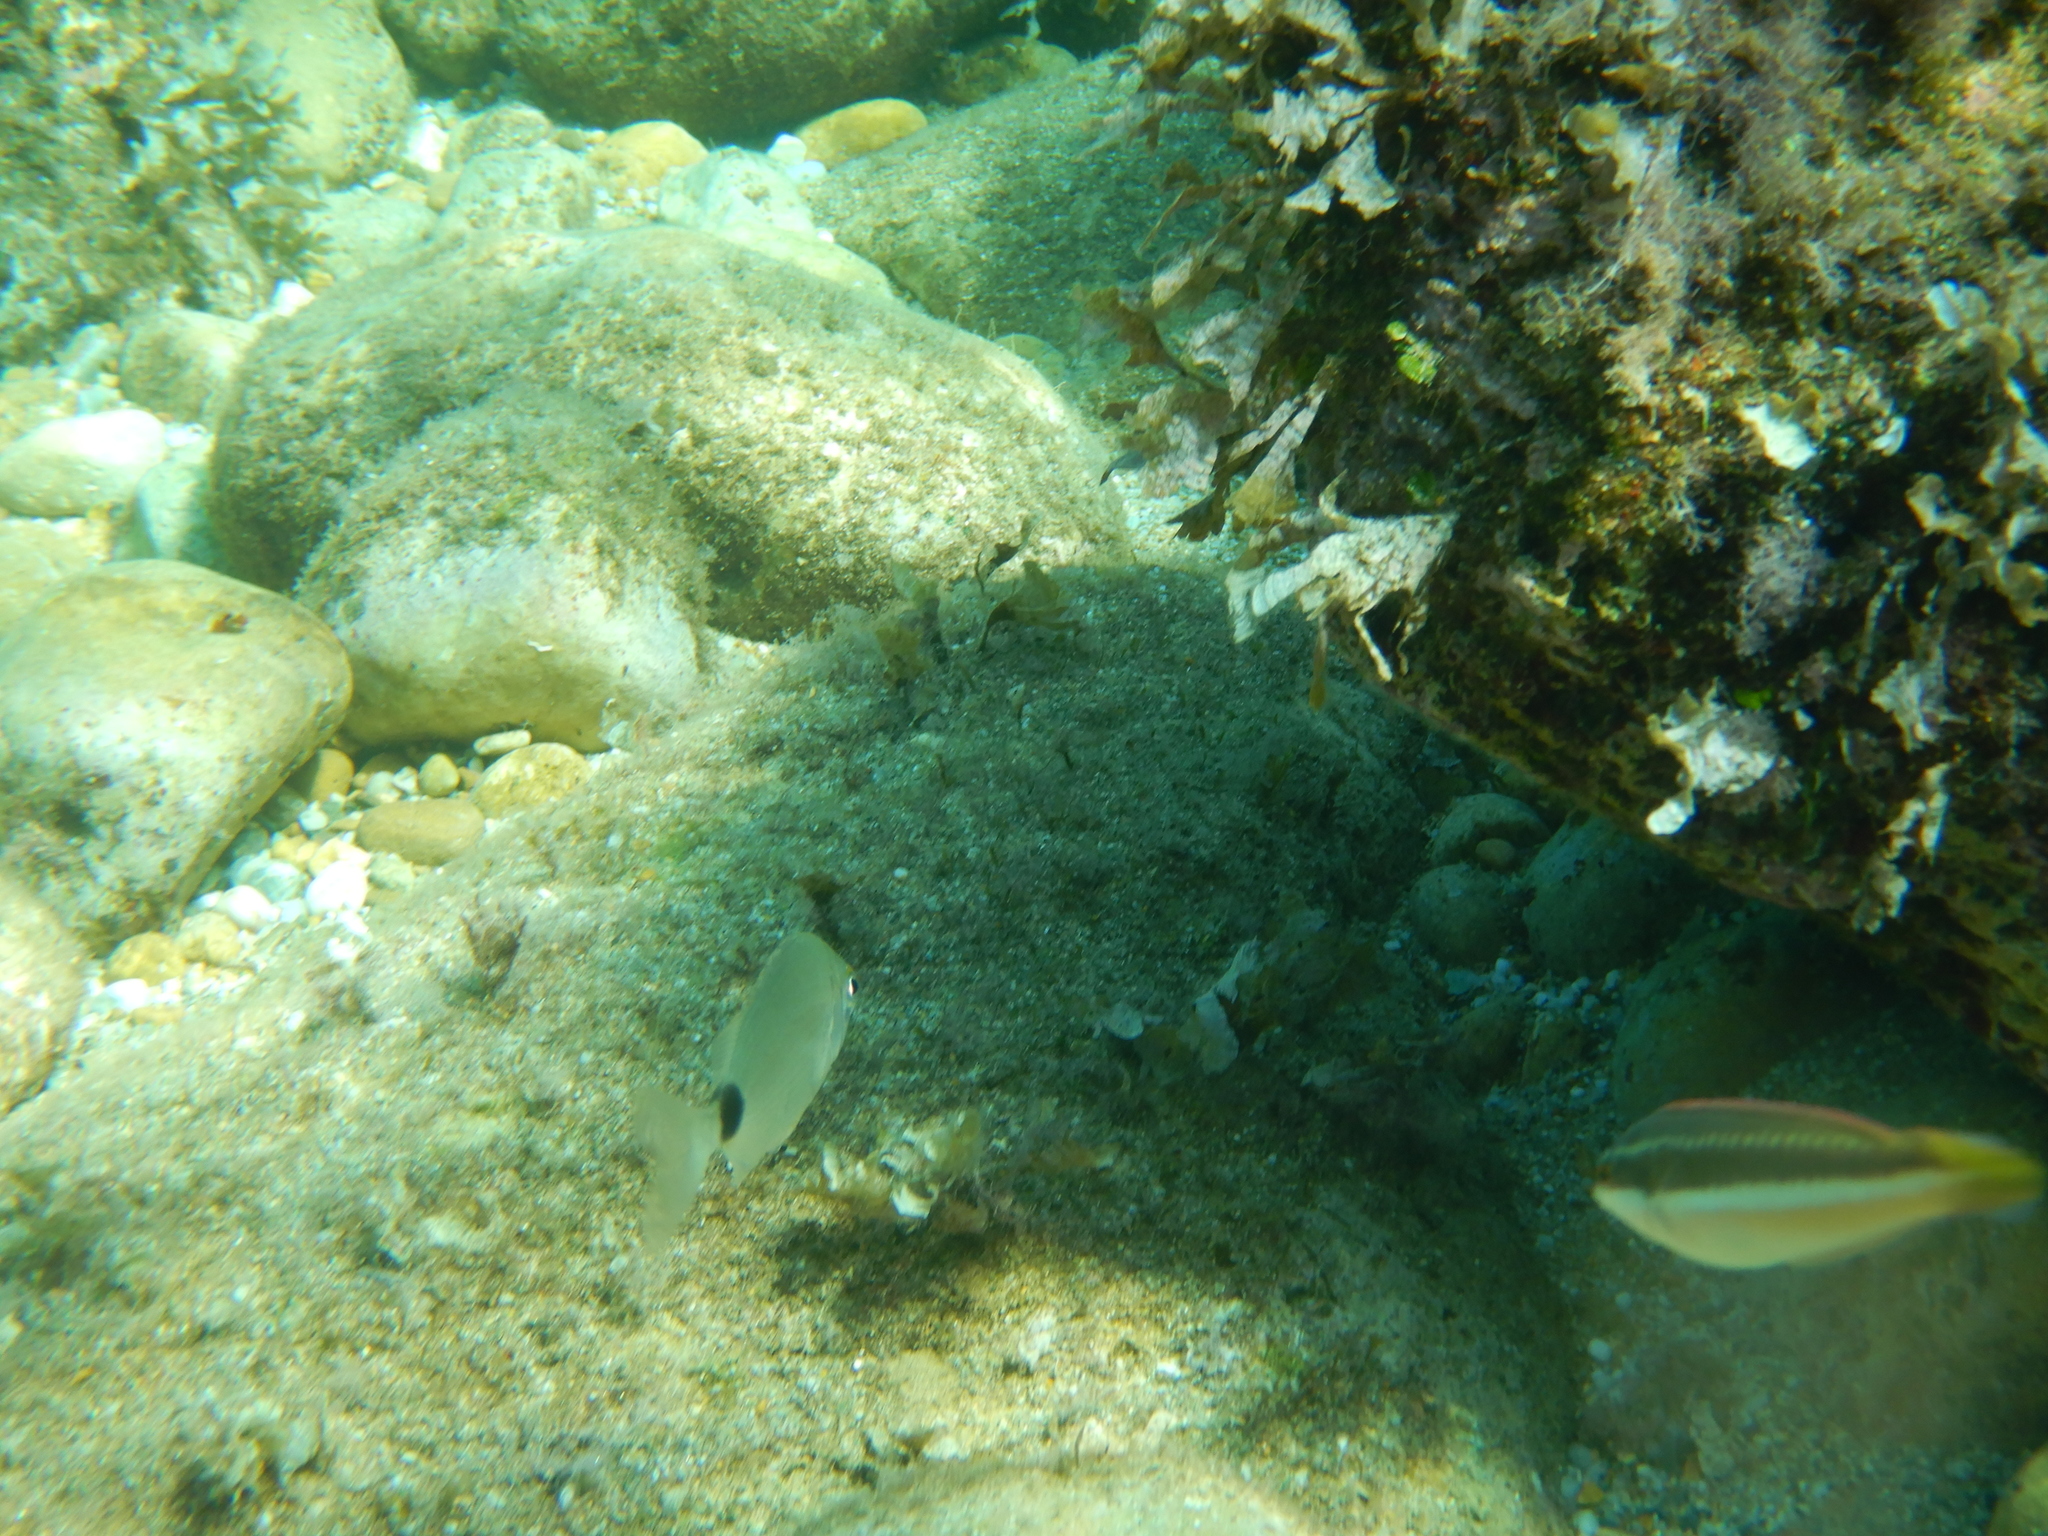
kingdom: Animalia
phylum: Chordata
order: Perciformes
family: Sparidae
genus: Diplodus
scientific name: Diplodus
